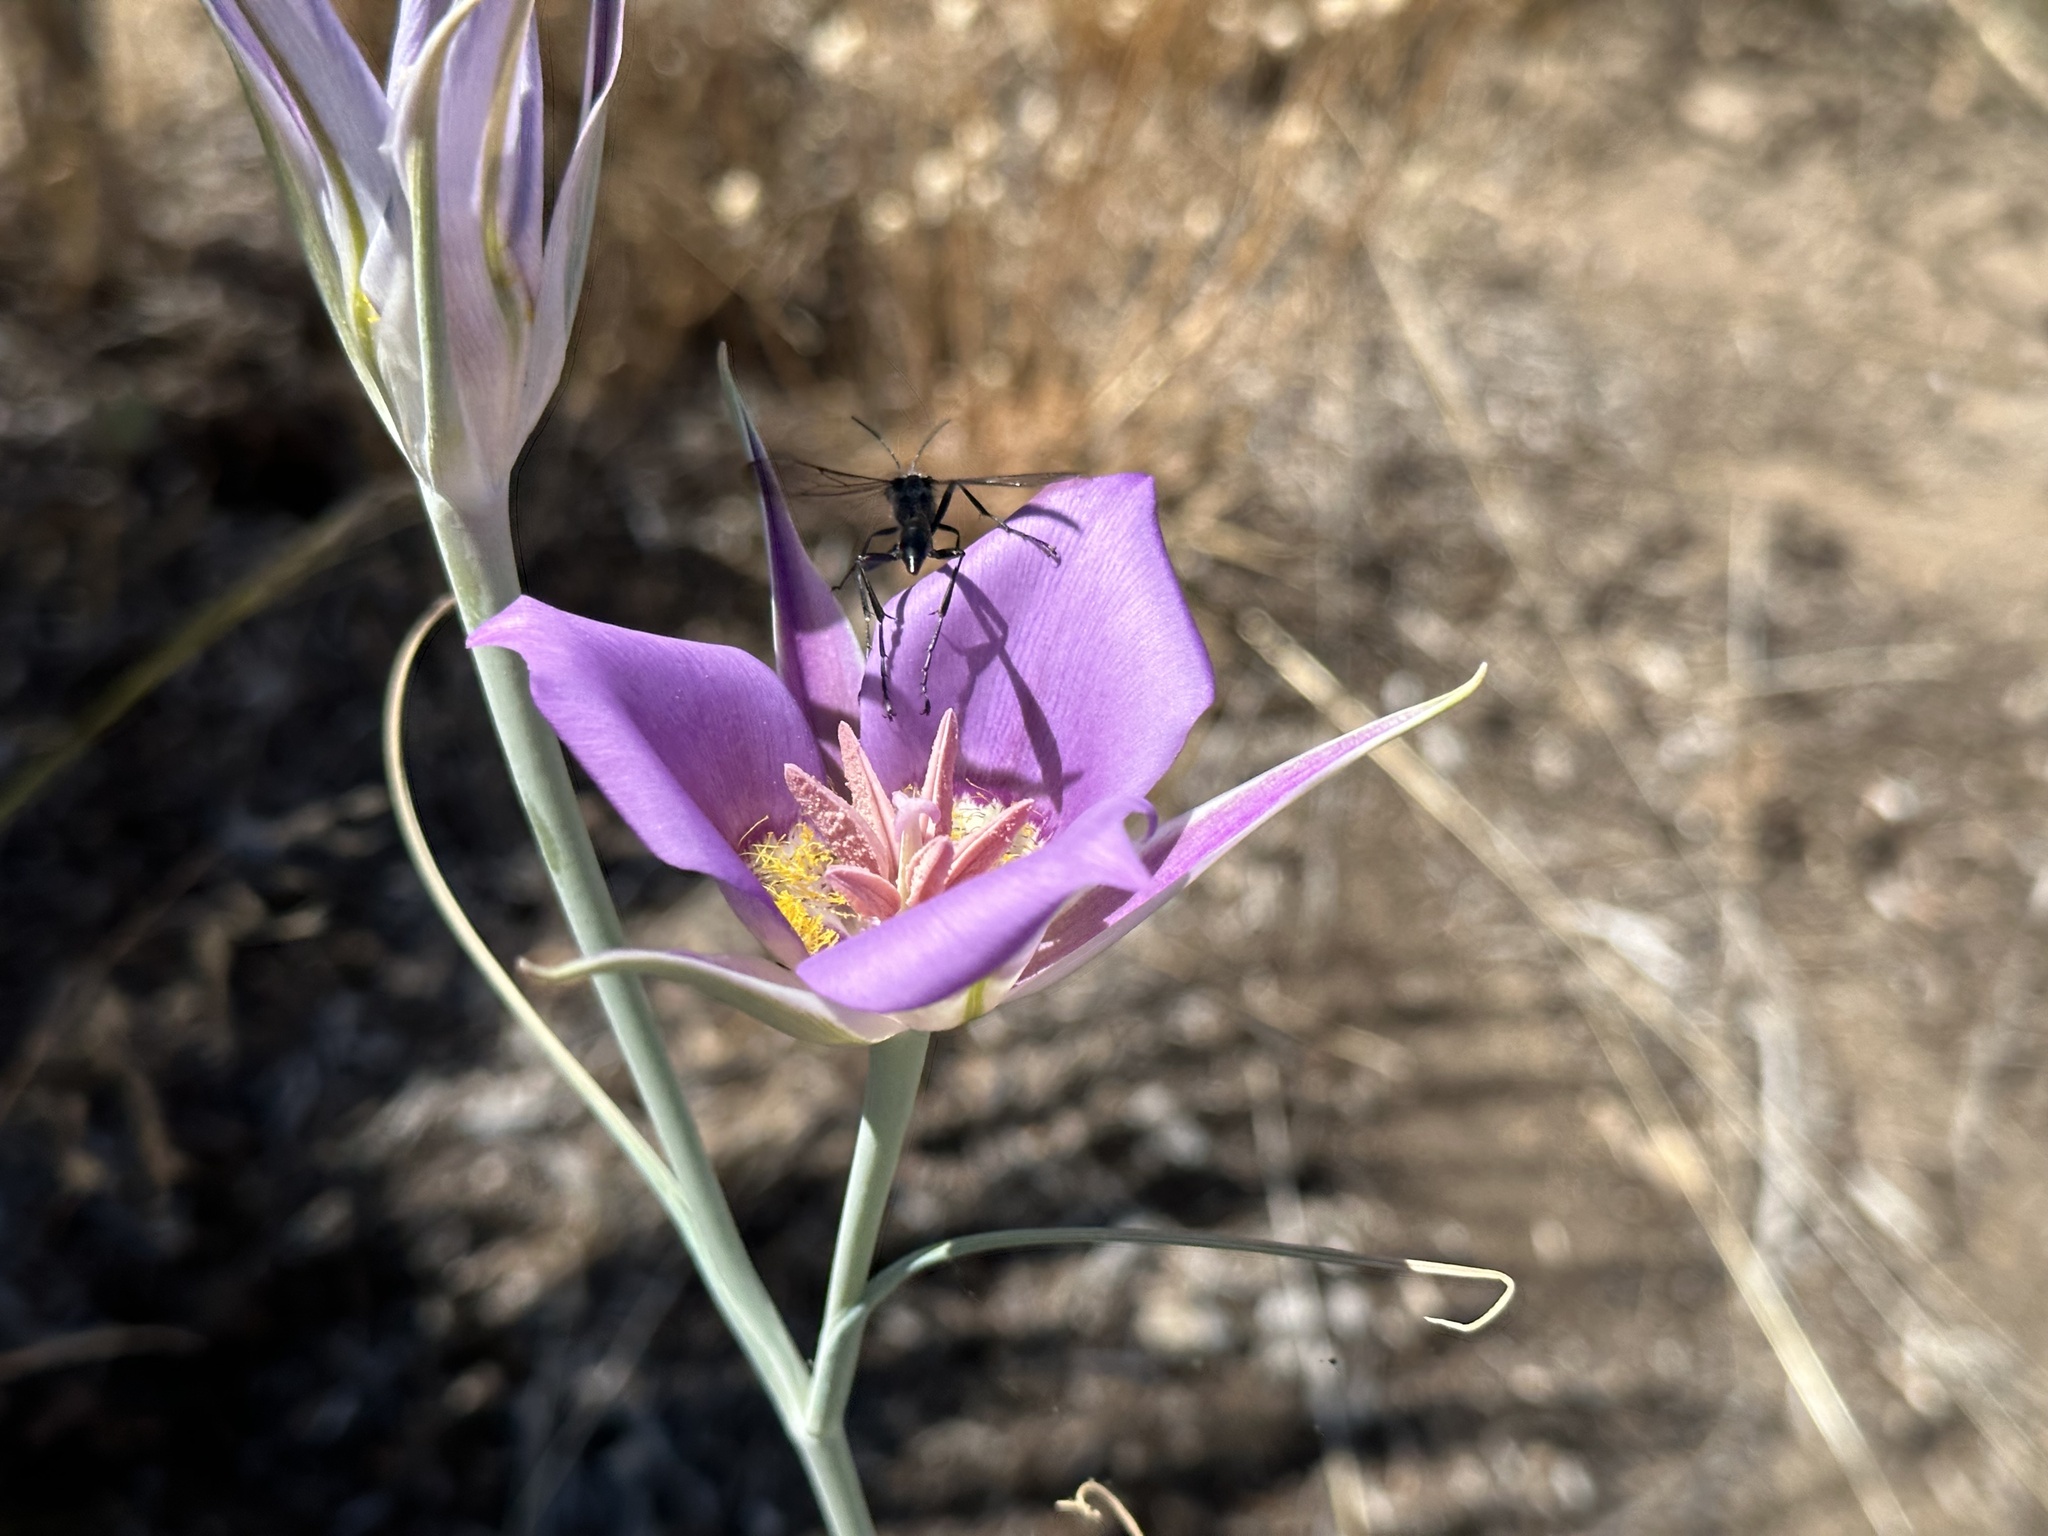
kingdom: Plantae
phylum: Tracheophyta
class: Liliopsida
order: Liliales
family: Liliaceae
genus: Calochortus
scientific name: Calochortus macrocarpus
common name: Green-band mariposa lily
